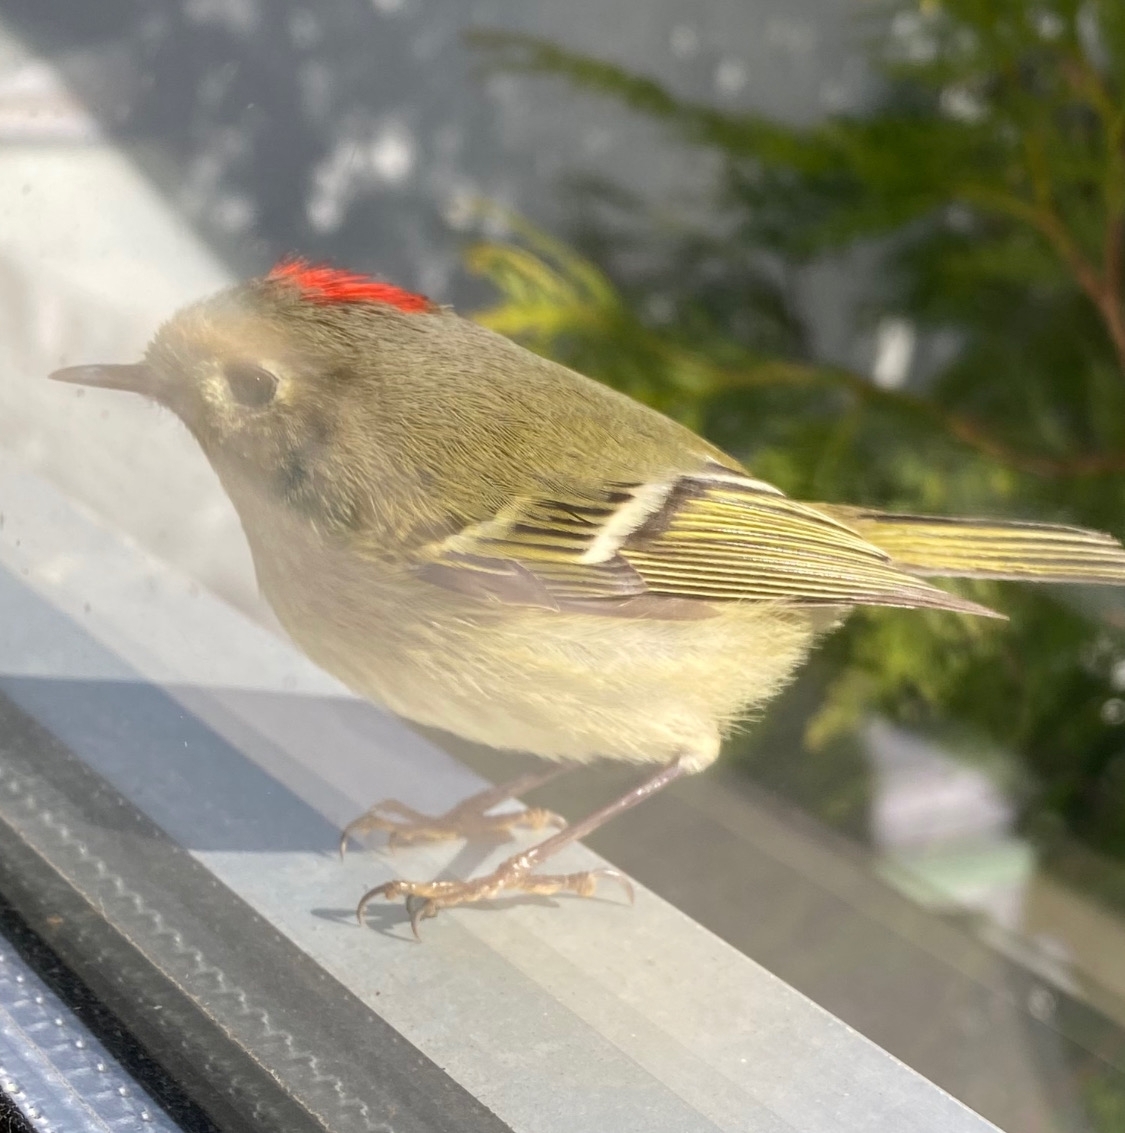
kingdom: Animalia
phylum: Chordata
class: Aves
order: Passeriformes
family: Regulidae
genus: Regulus
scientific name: Regulus calendula
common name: Ruby-crowned kinglet
